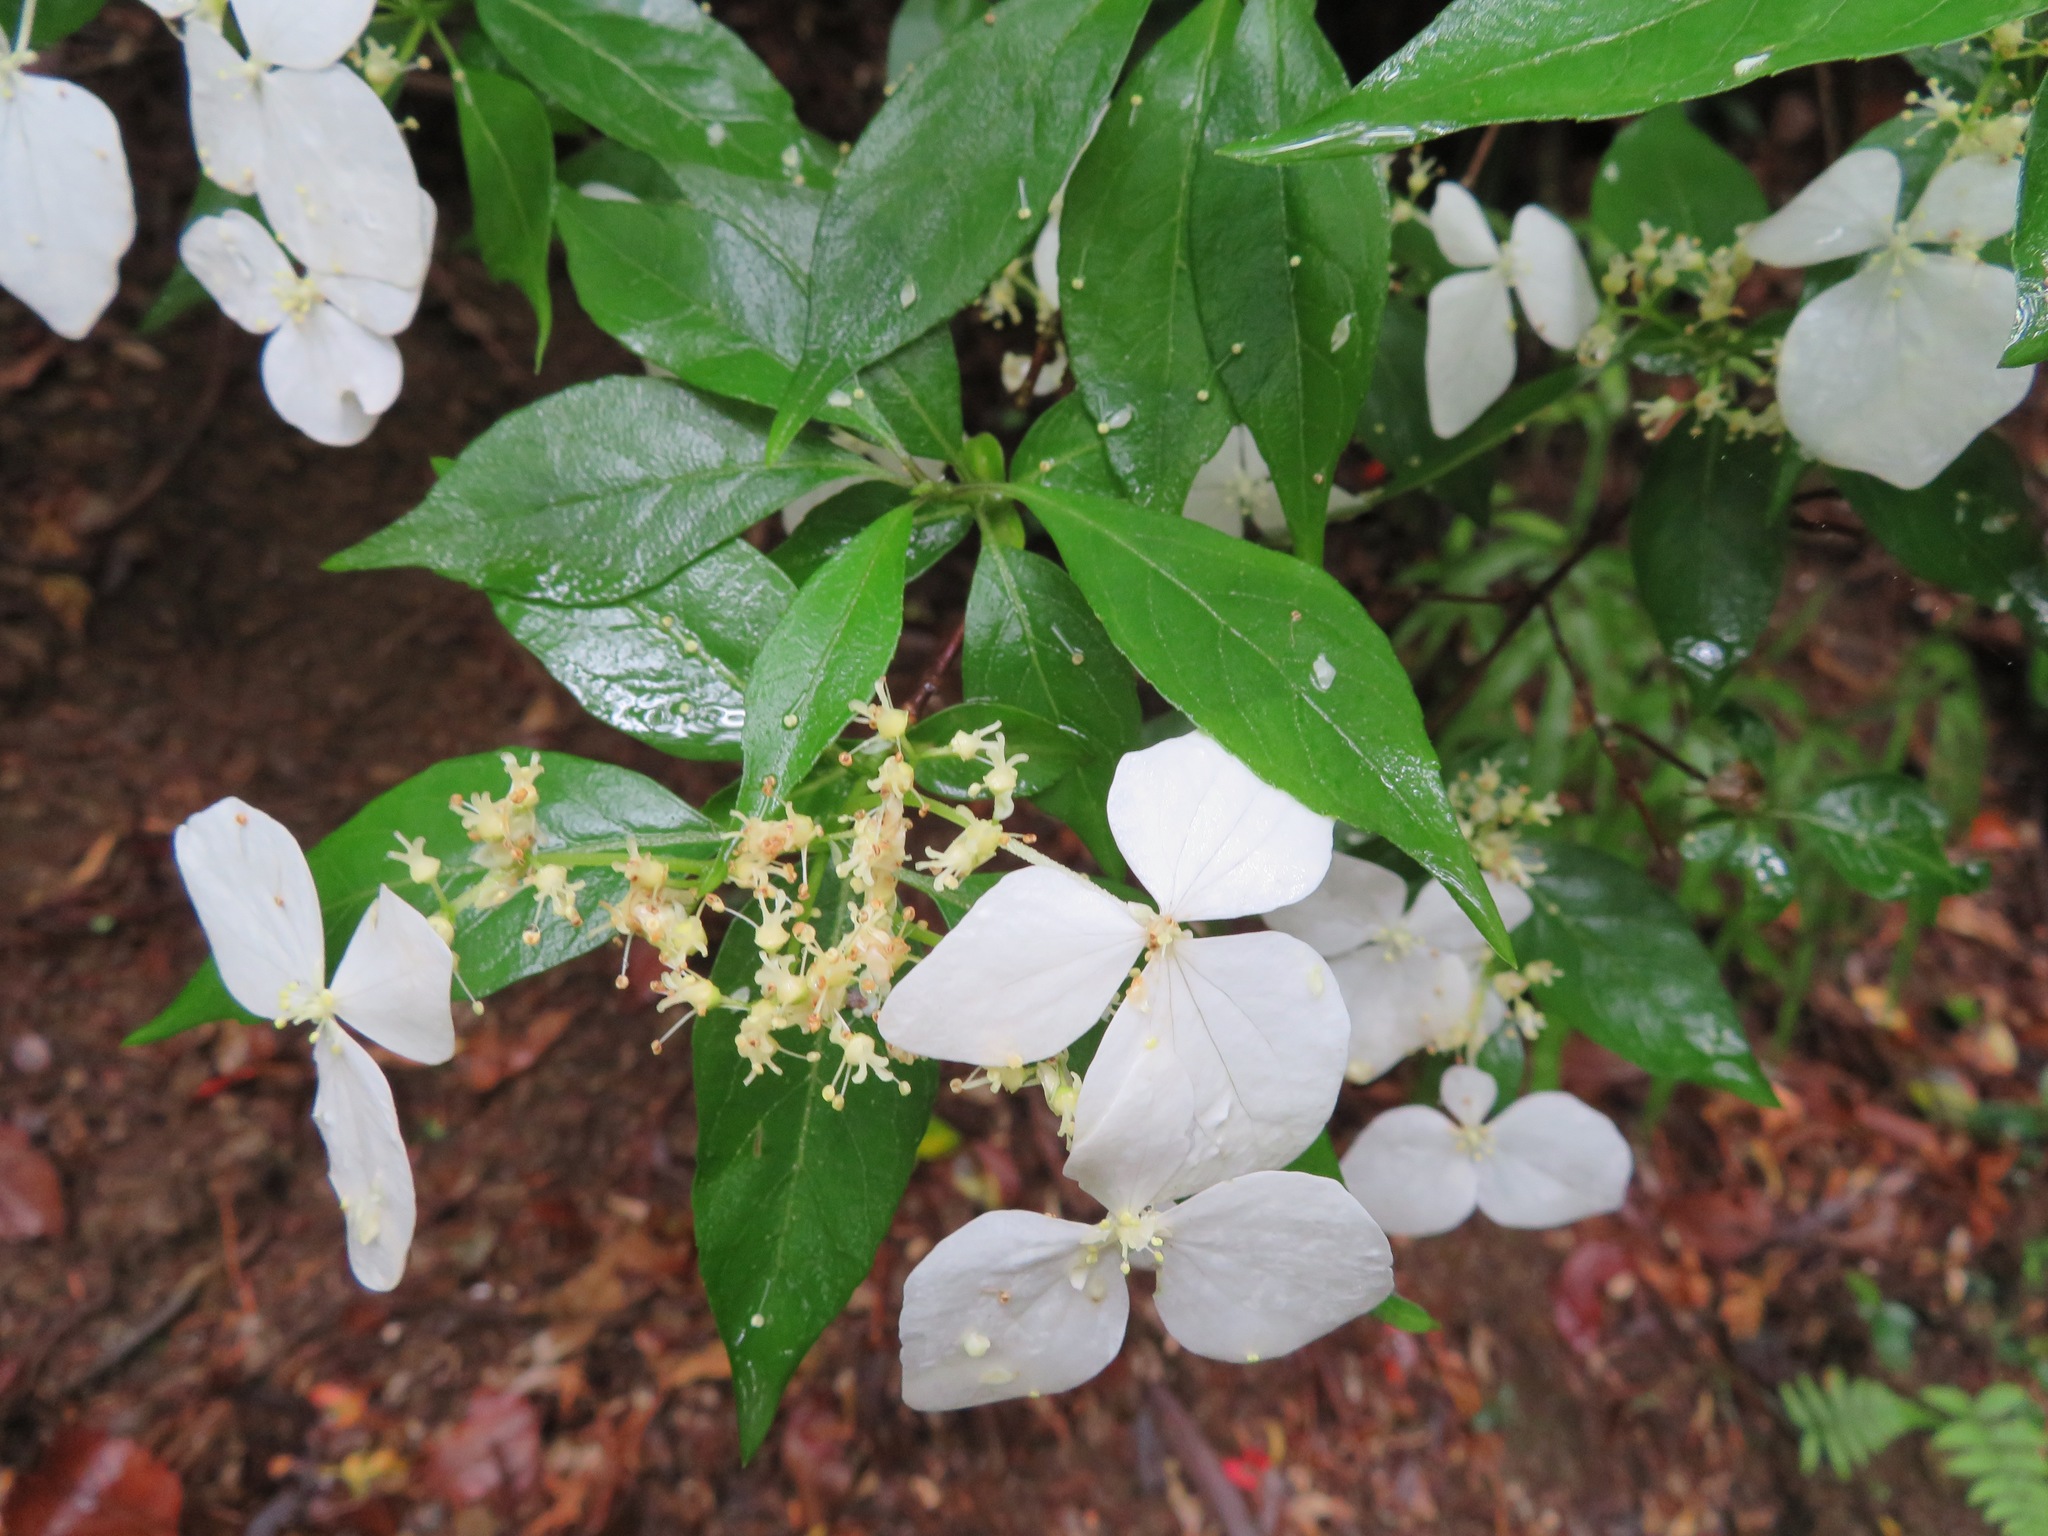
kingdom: Plantae
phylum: Tracheophyta
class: Magnoliopsida
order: Cornales
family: Hydrangeaceae
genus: Hydrangea
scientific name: Hydrangea scandens
